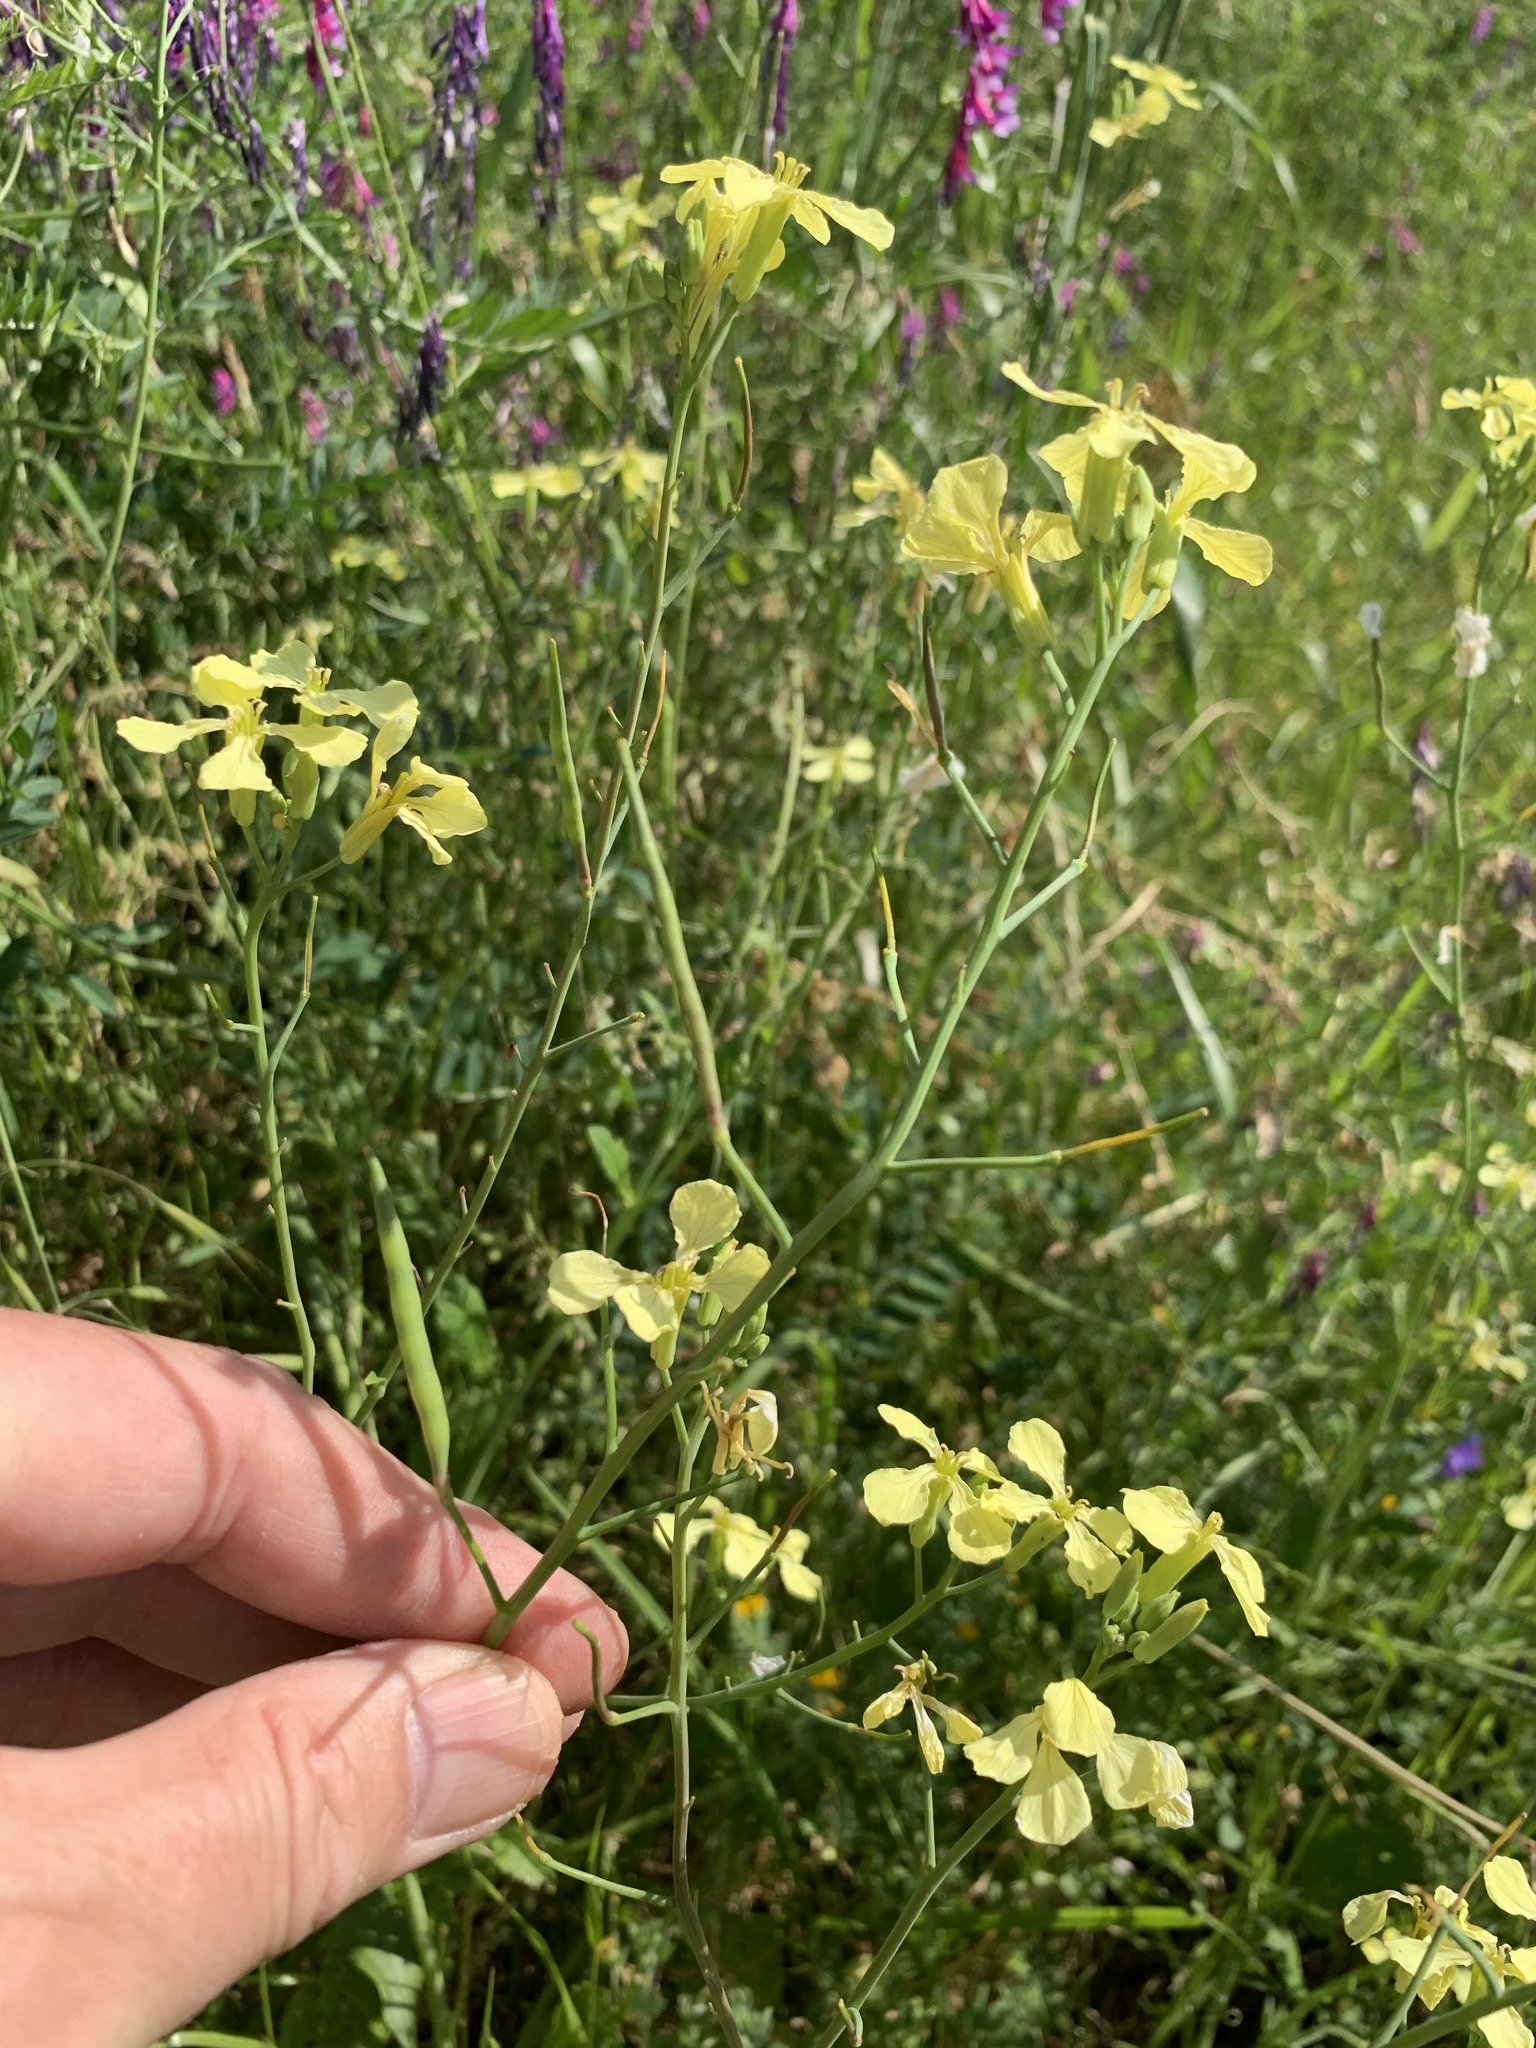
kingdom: Plantae
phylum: Tracheophyta
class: Magnoliopsida
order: Brassicales
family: Brassicaceae
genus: Raphanus
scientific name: Raphanus raphanistrum
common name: Wild radish
